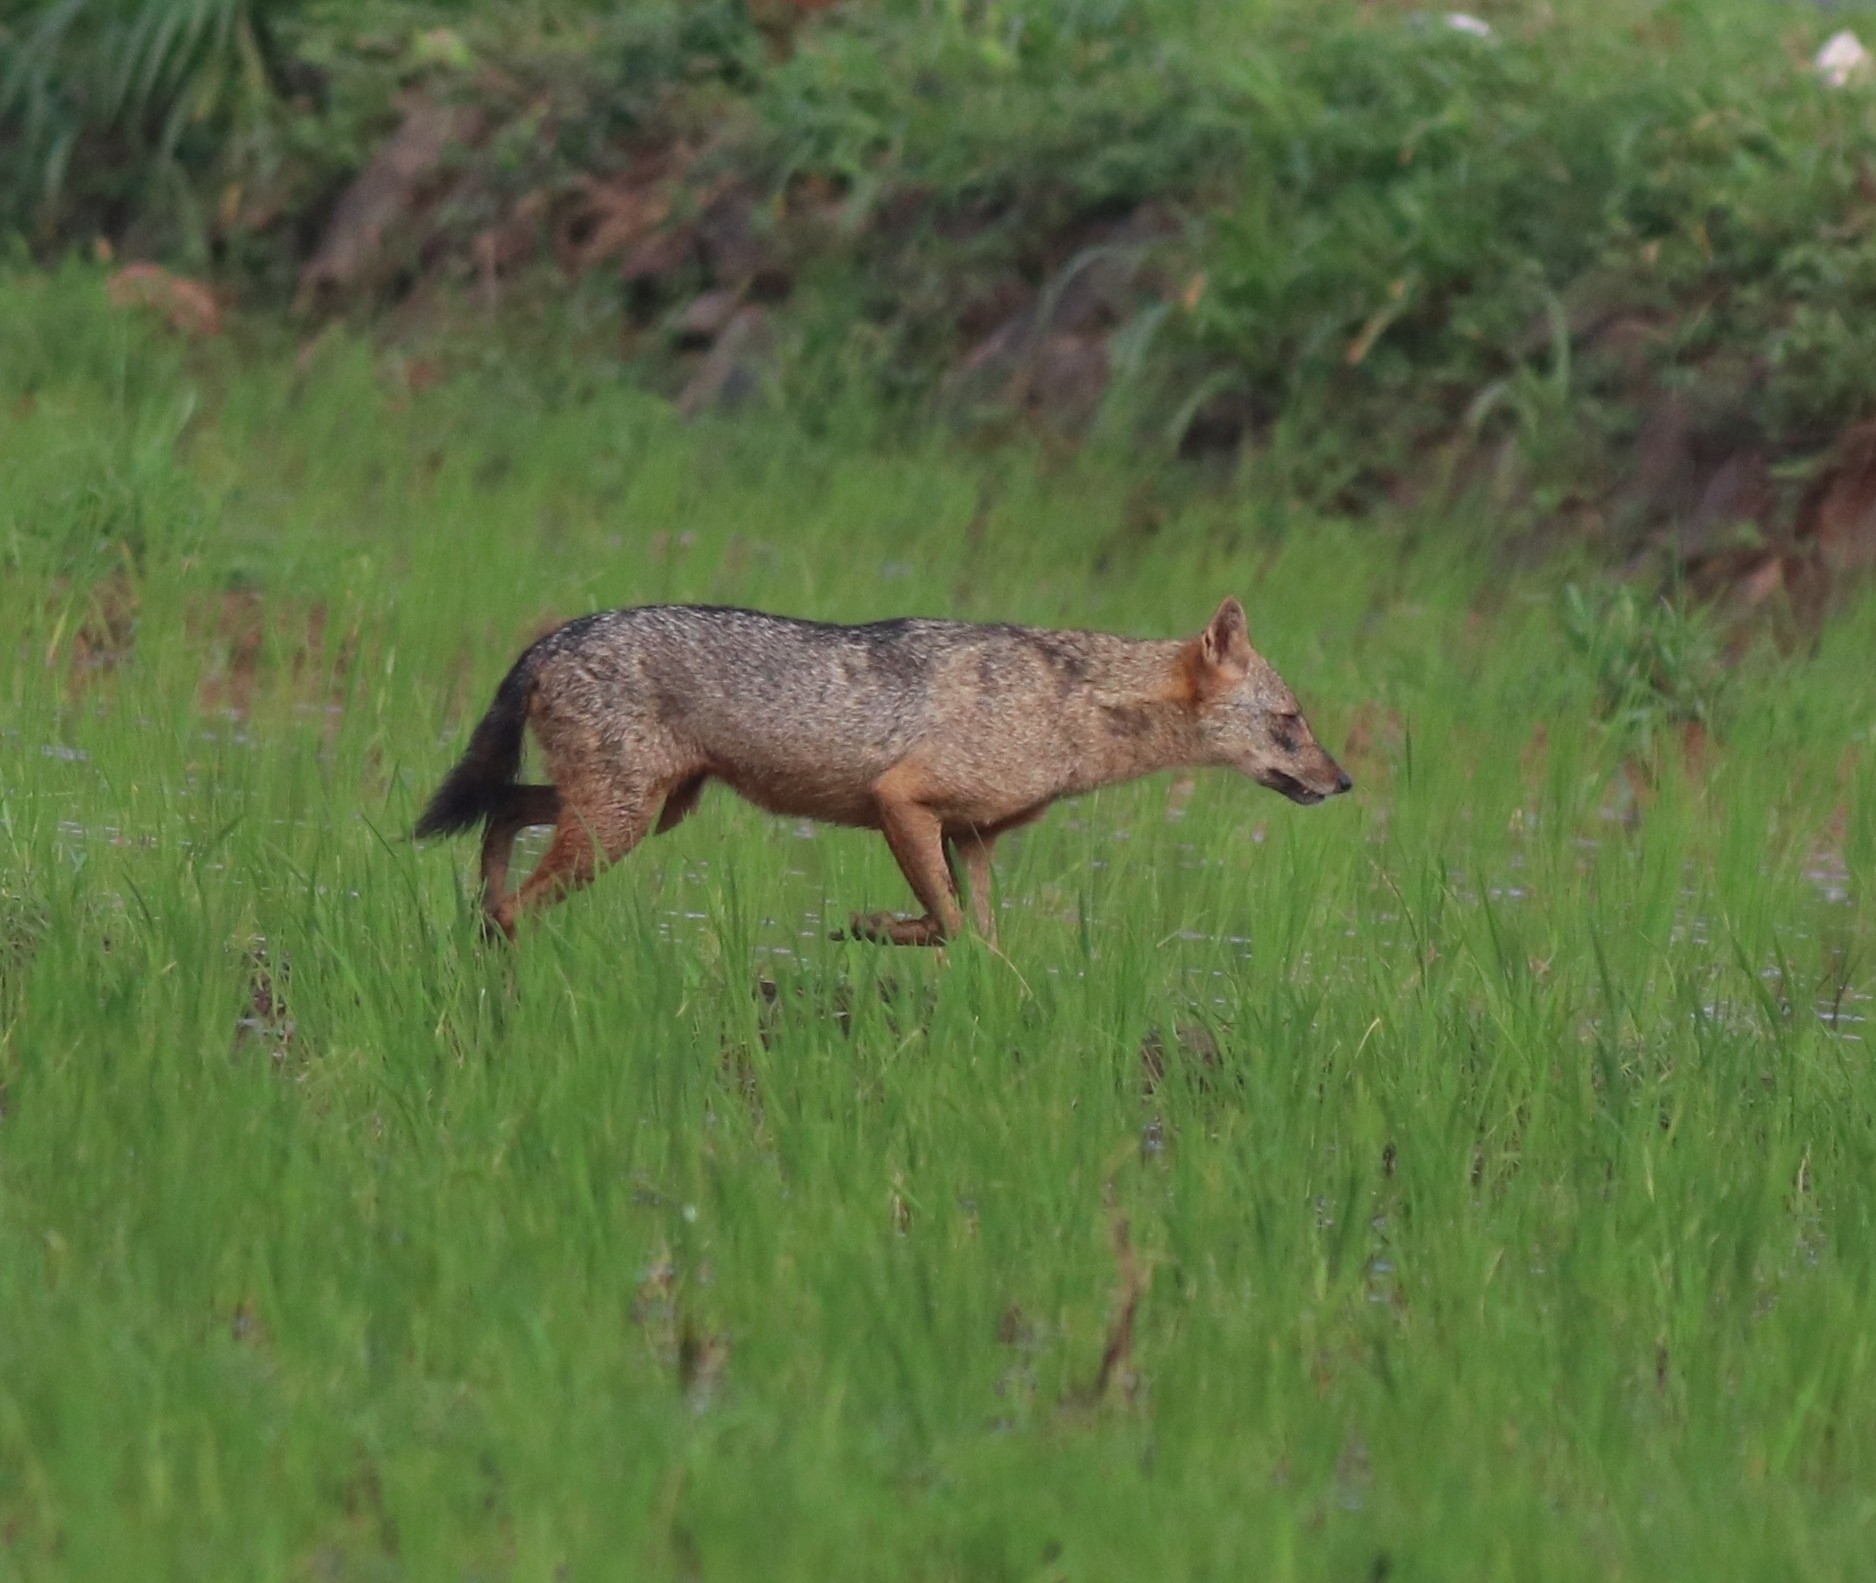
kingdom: Animalia
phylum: Chordata
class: Mammalia
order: Carnivora
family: Canidae
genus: Canis
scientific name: Canis aureus
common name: Golden jackal
